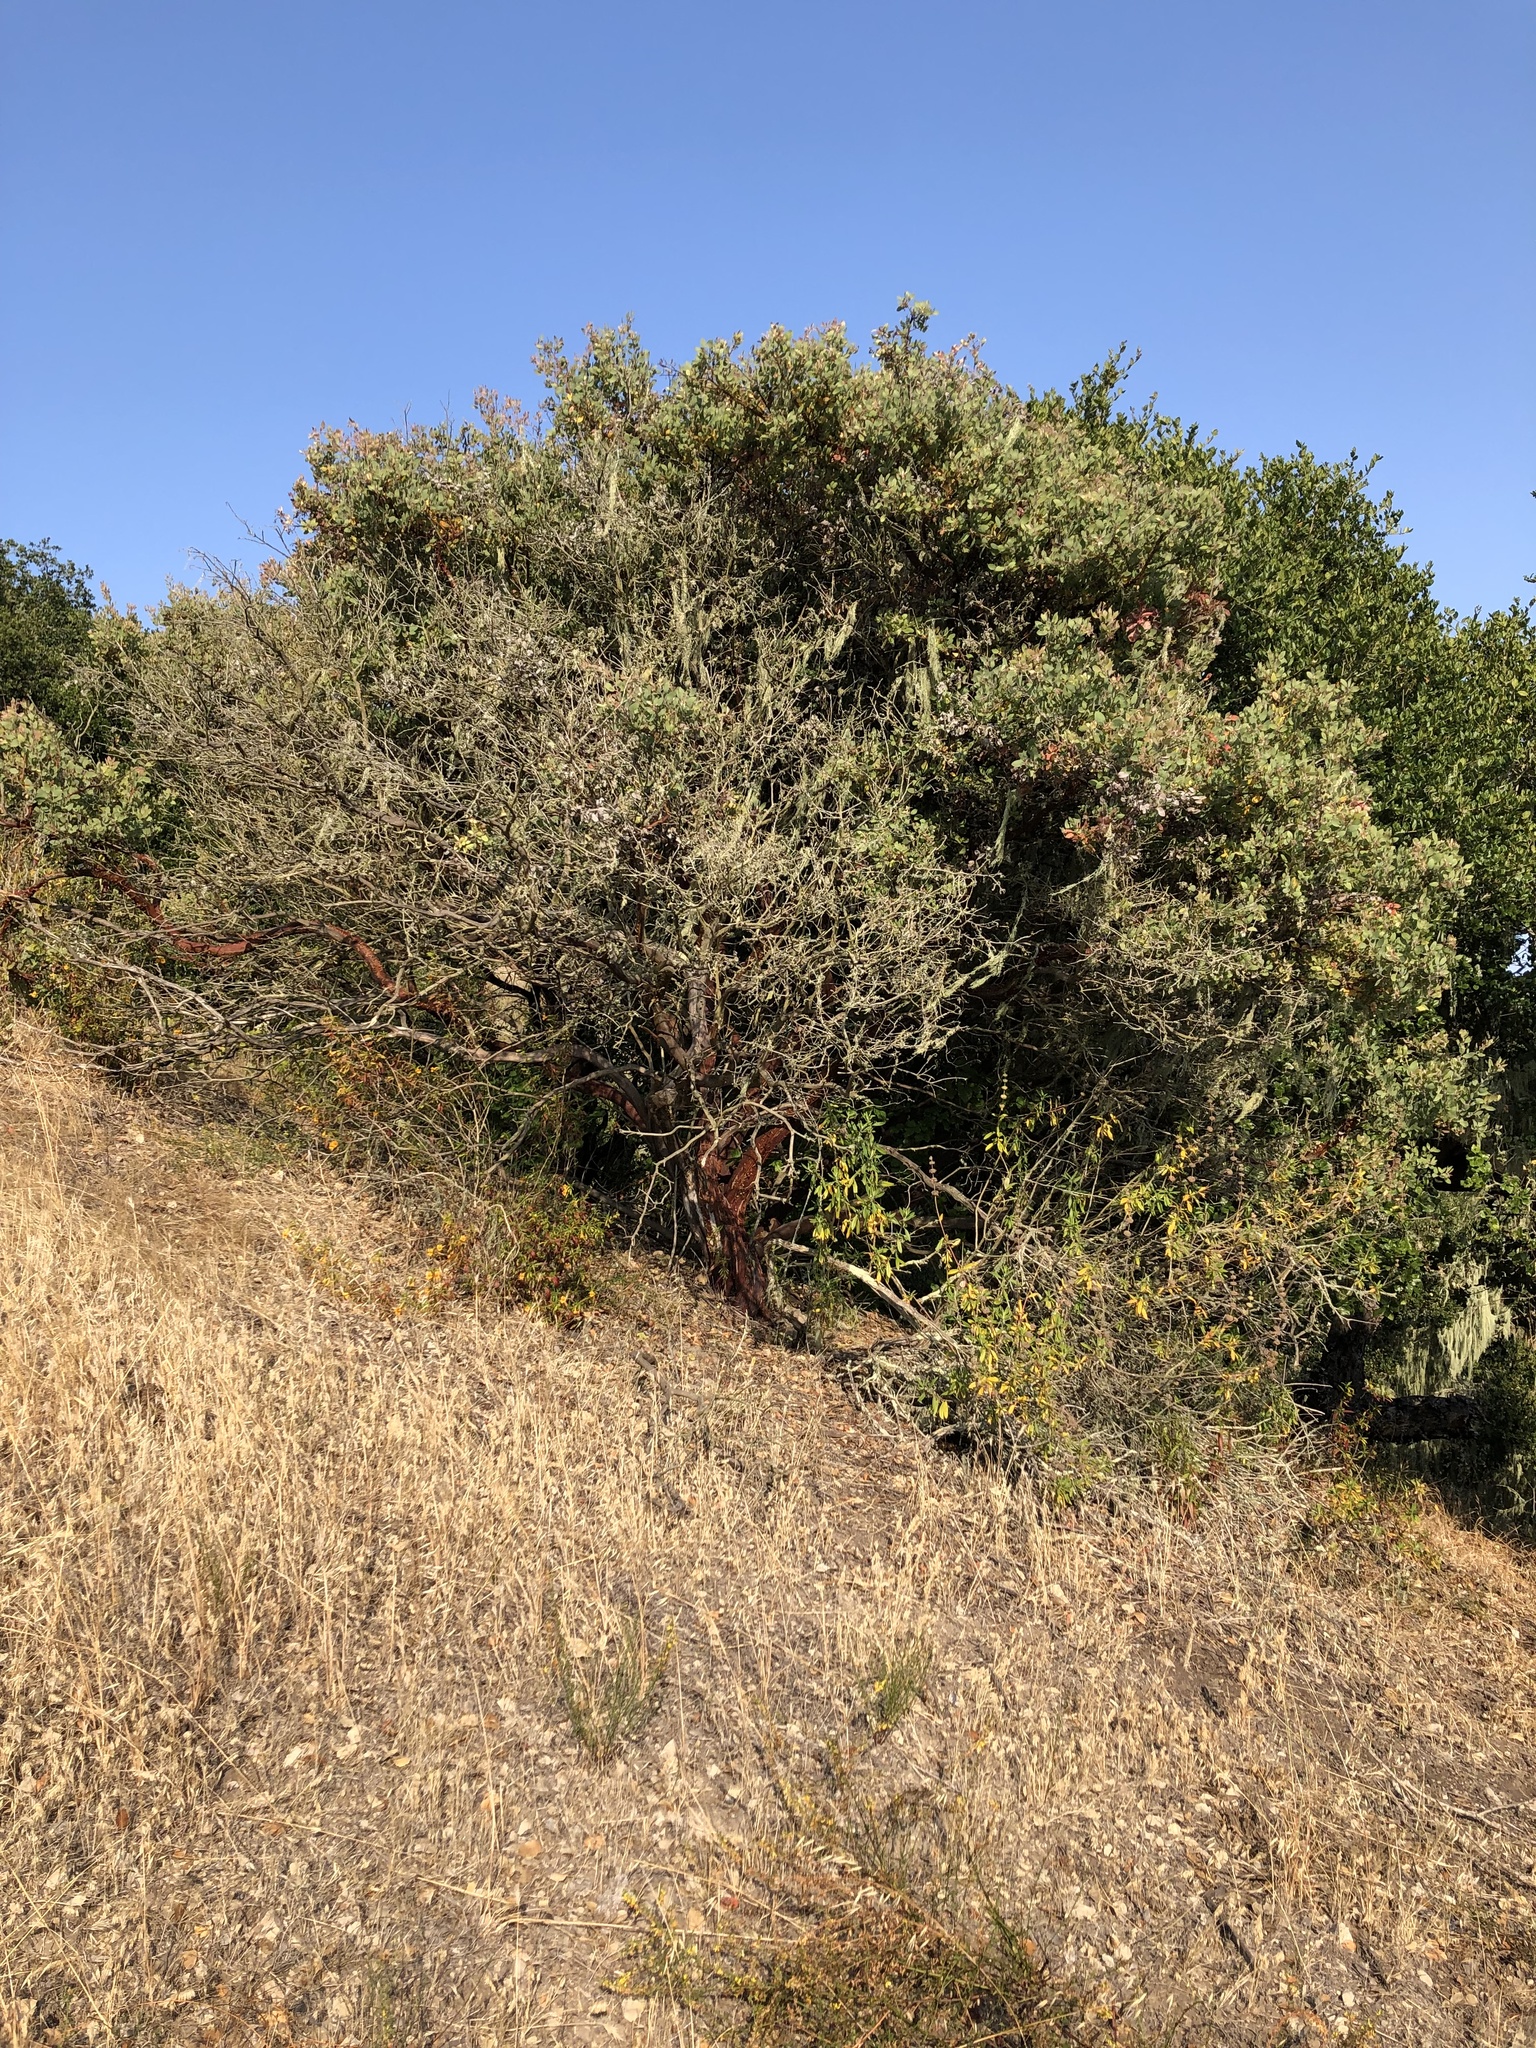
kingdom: Plantae
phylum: Tracheophyta
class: Magnoliopsida
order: Ericales
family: Ericaceae
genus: Arctostaphylos
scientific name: Arctostaphylos pilosula
